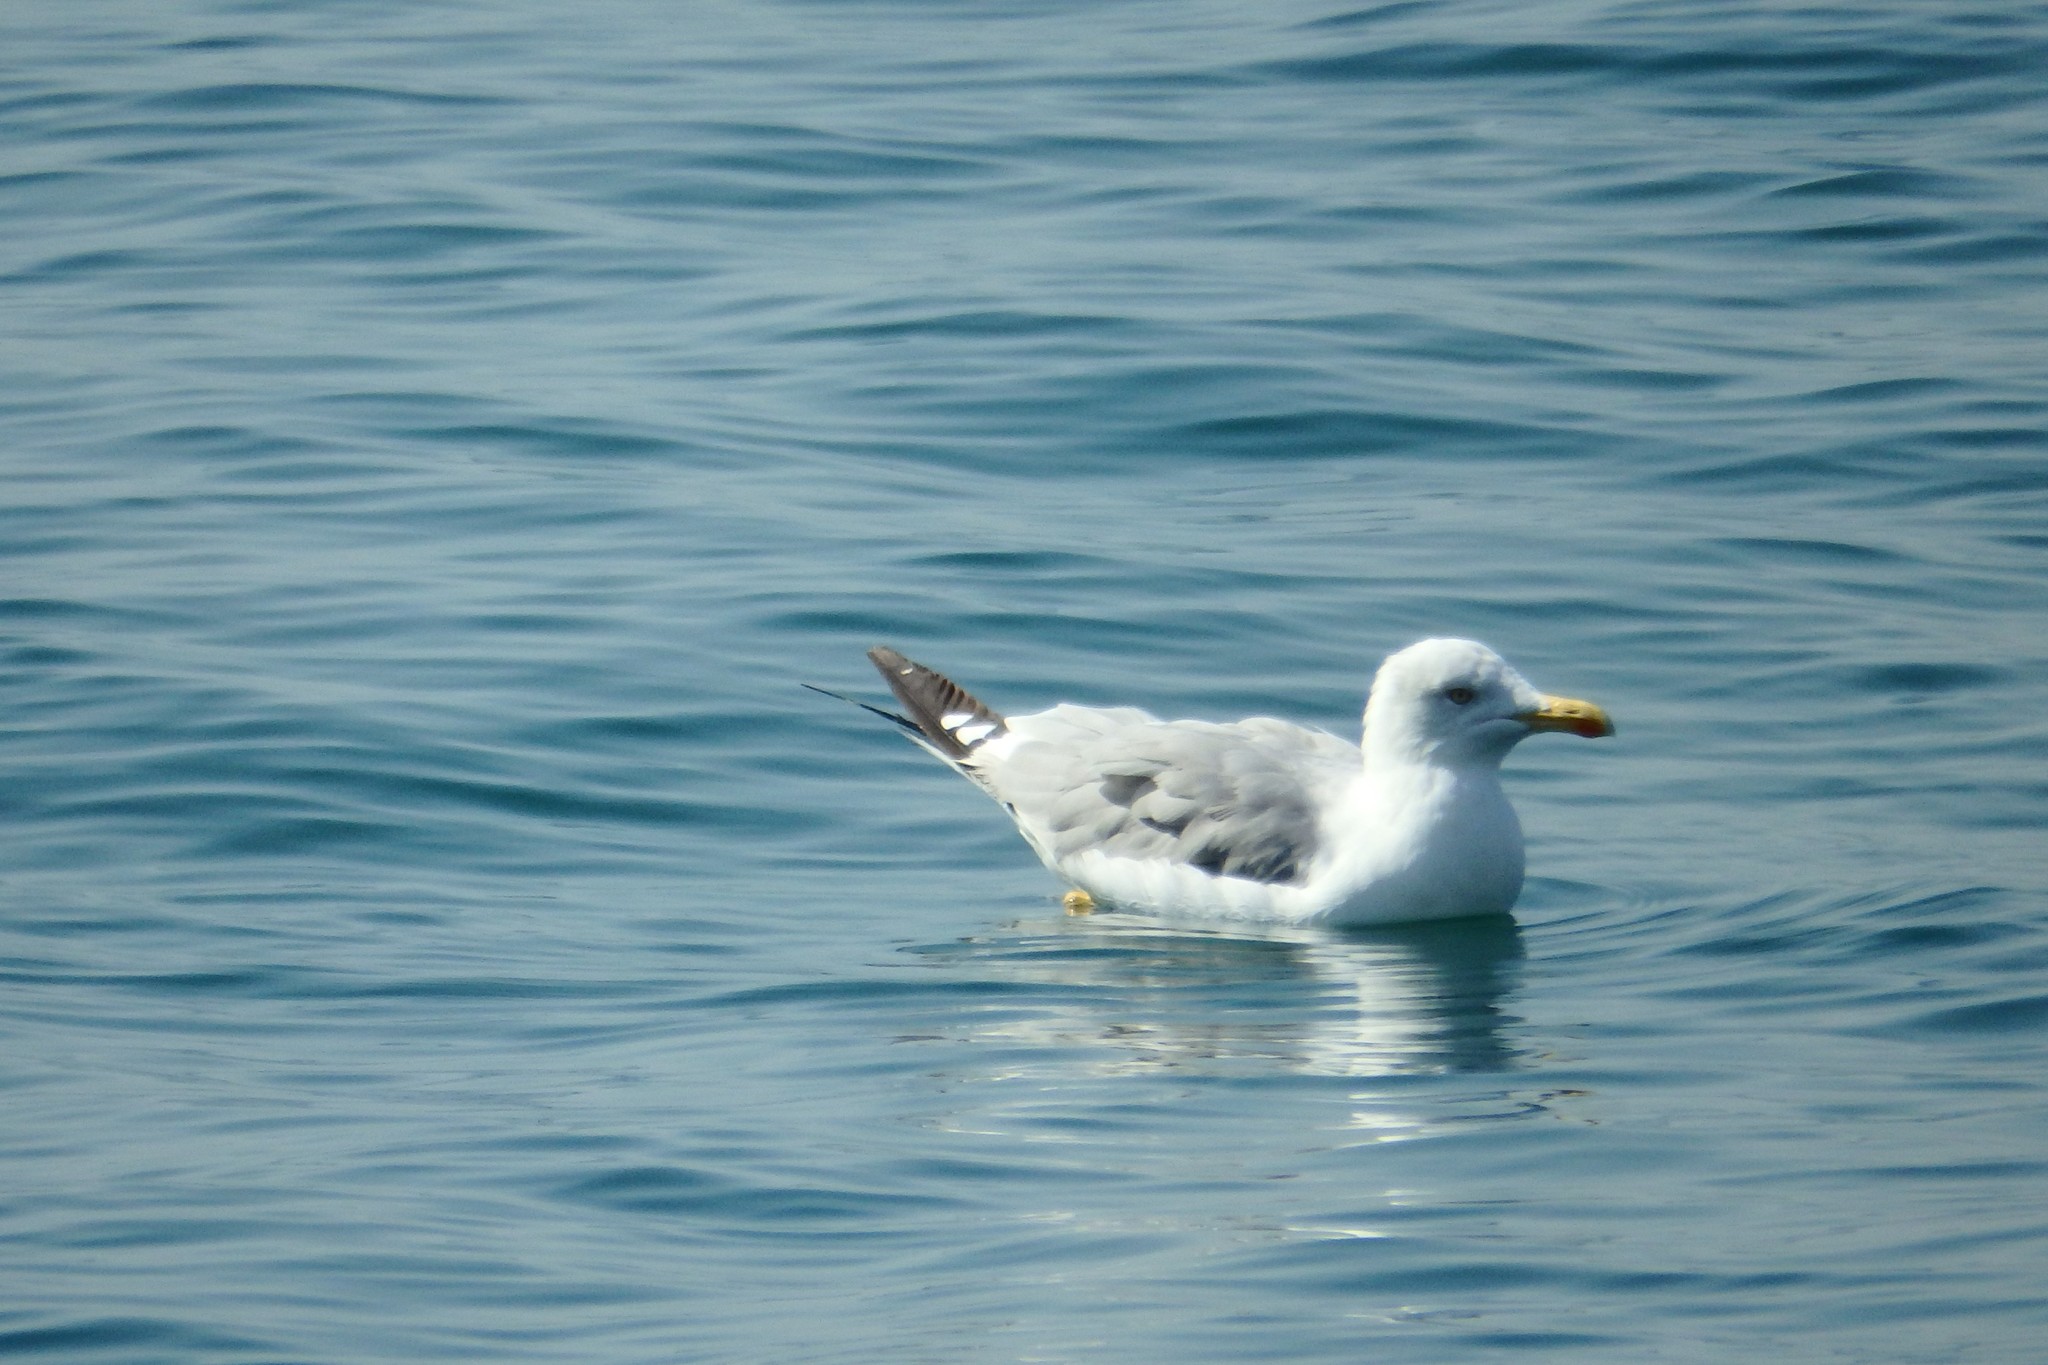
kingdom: Animalia
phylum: Chordata
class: Aves
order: Charadriiformes
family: Laridae
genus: Larus
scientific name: Larus michahellis
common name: Yellow-legged gull
